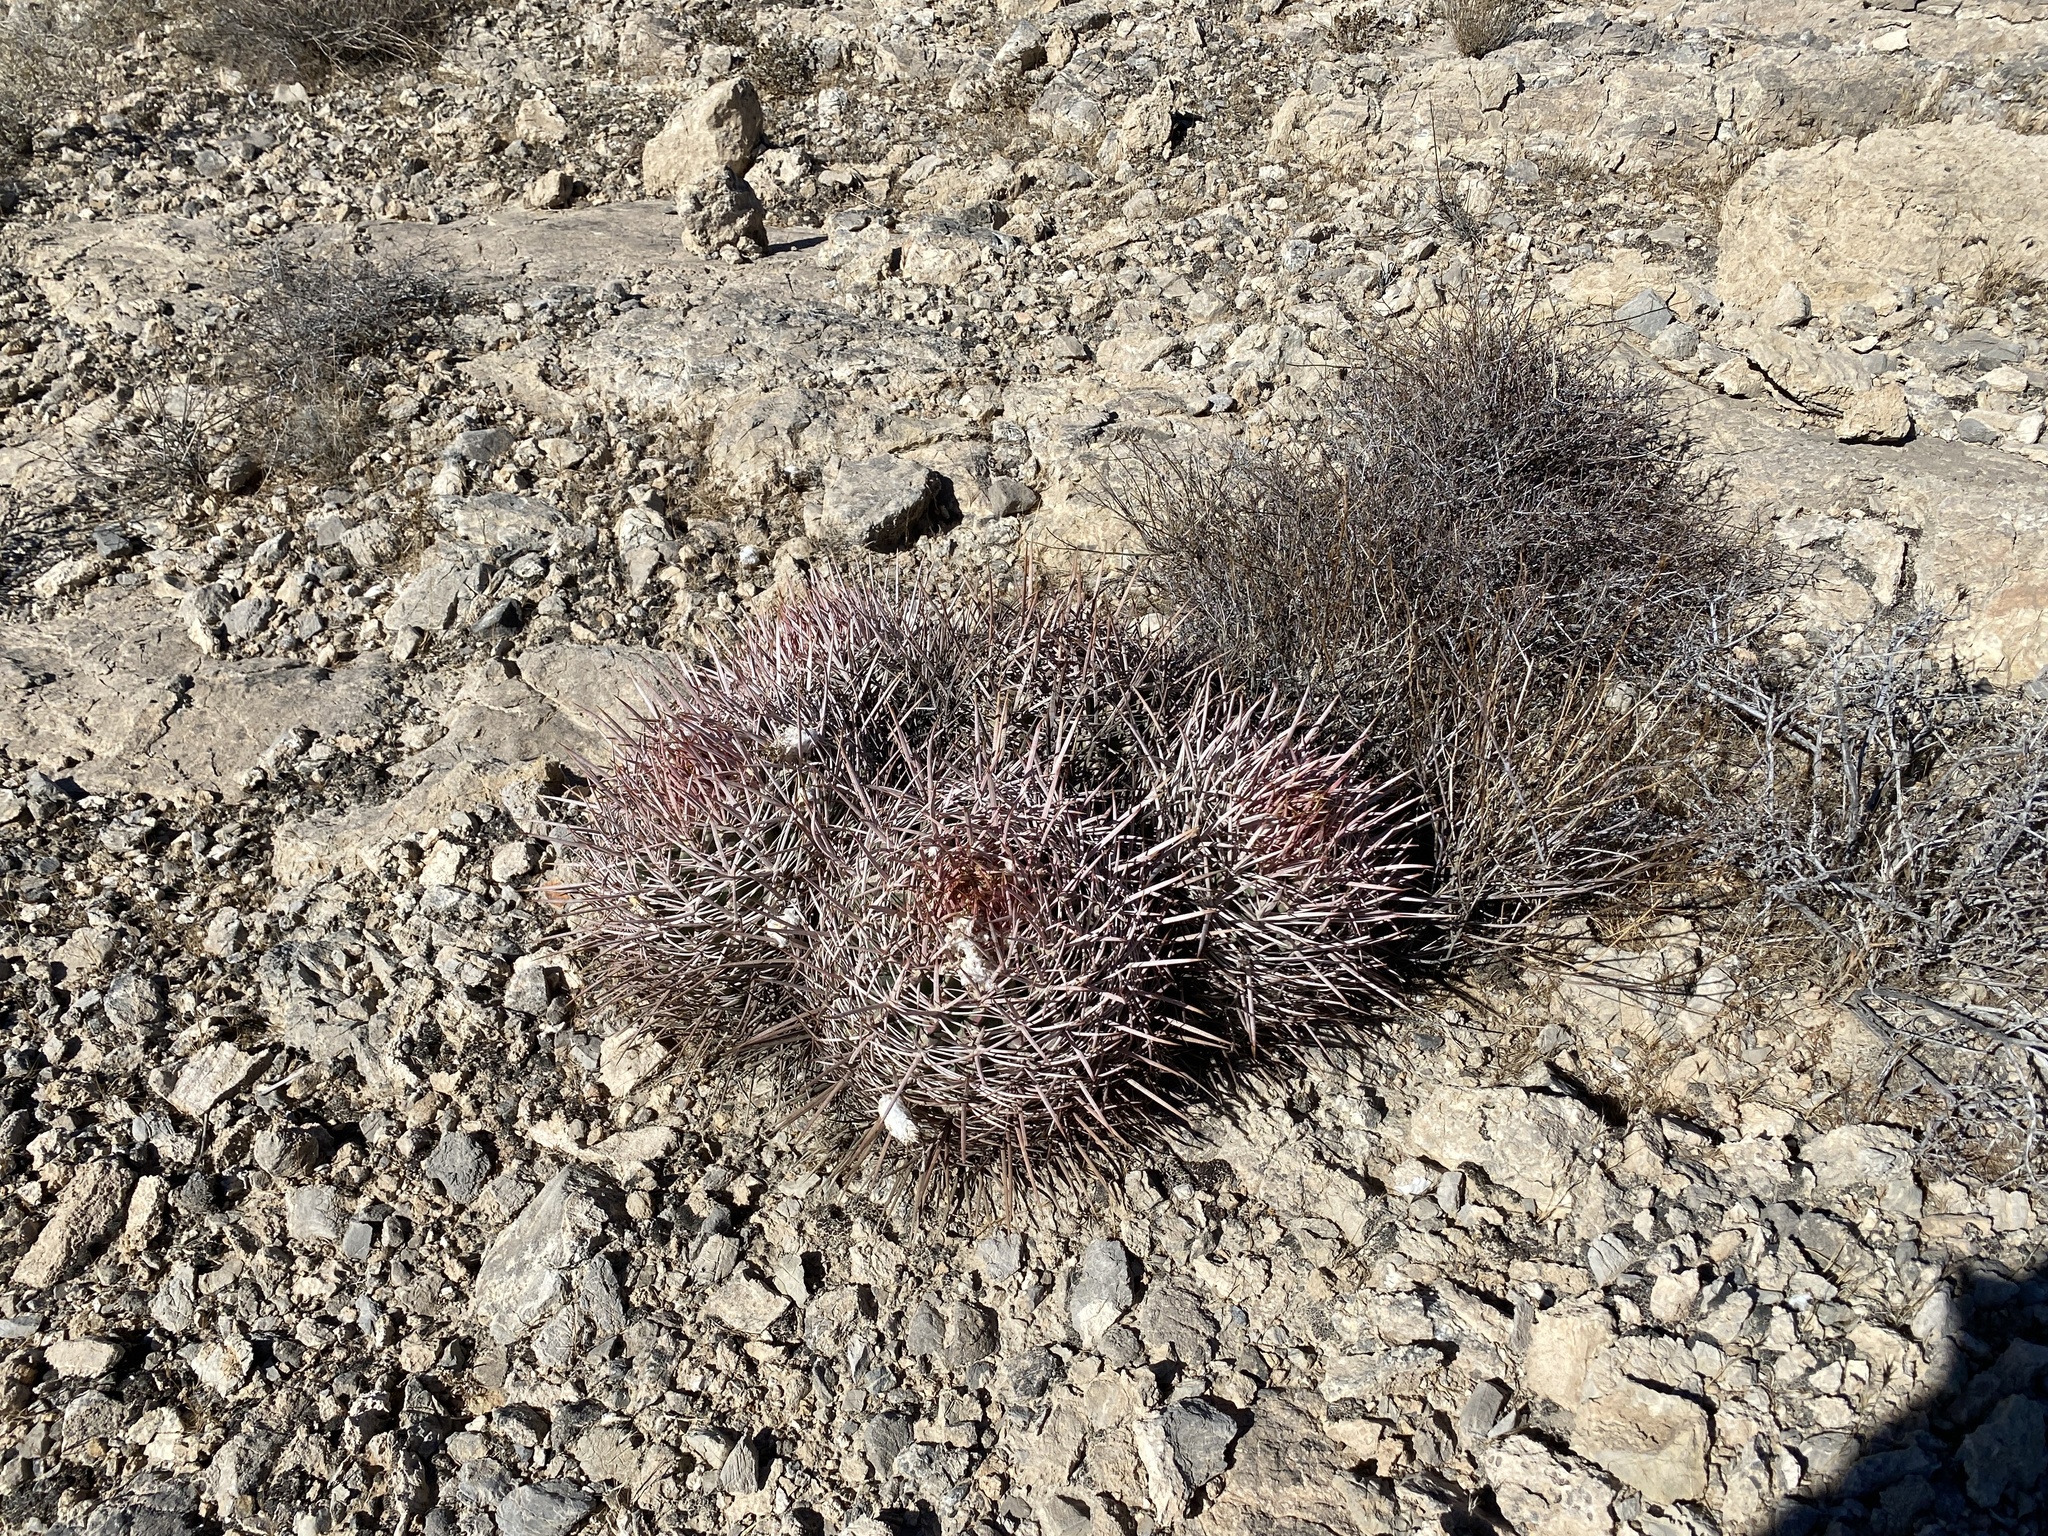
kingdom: Plantae
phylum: Tracheophyta
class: Magnoliopsida
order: Caryophyllales
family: Cactaceae
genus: Echinocactus
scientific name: Echinocactus polycephalus
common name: Cottontop cactus
